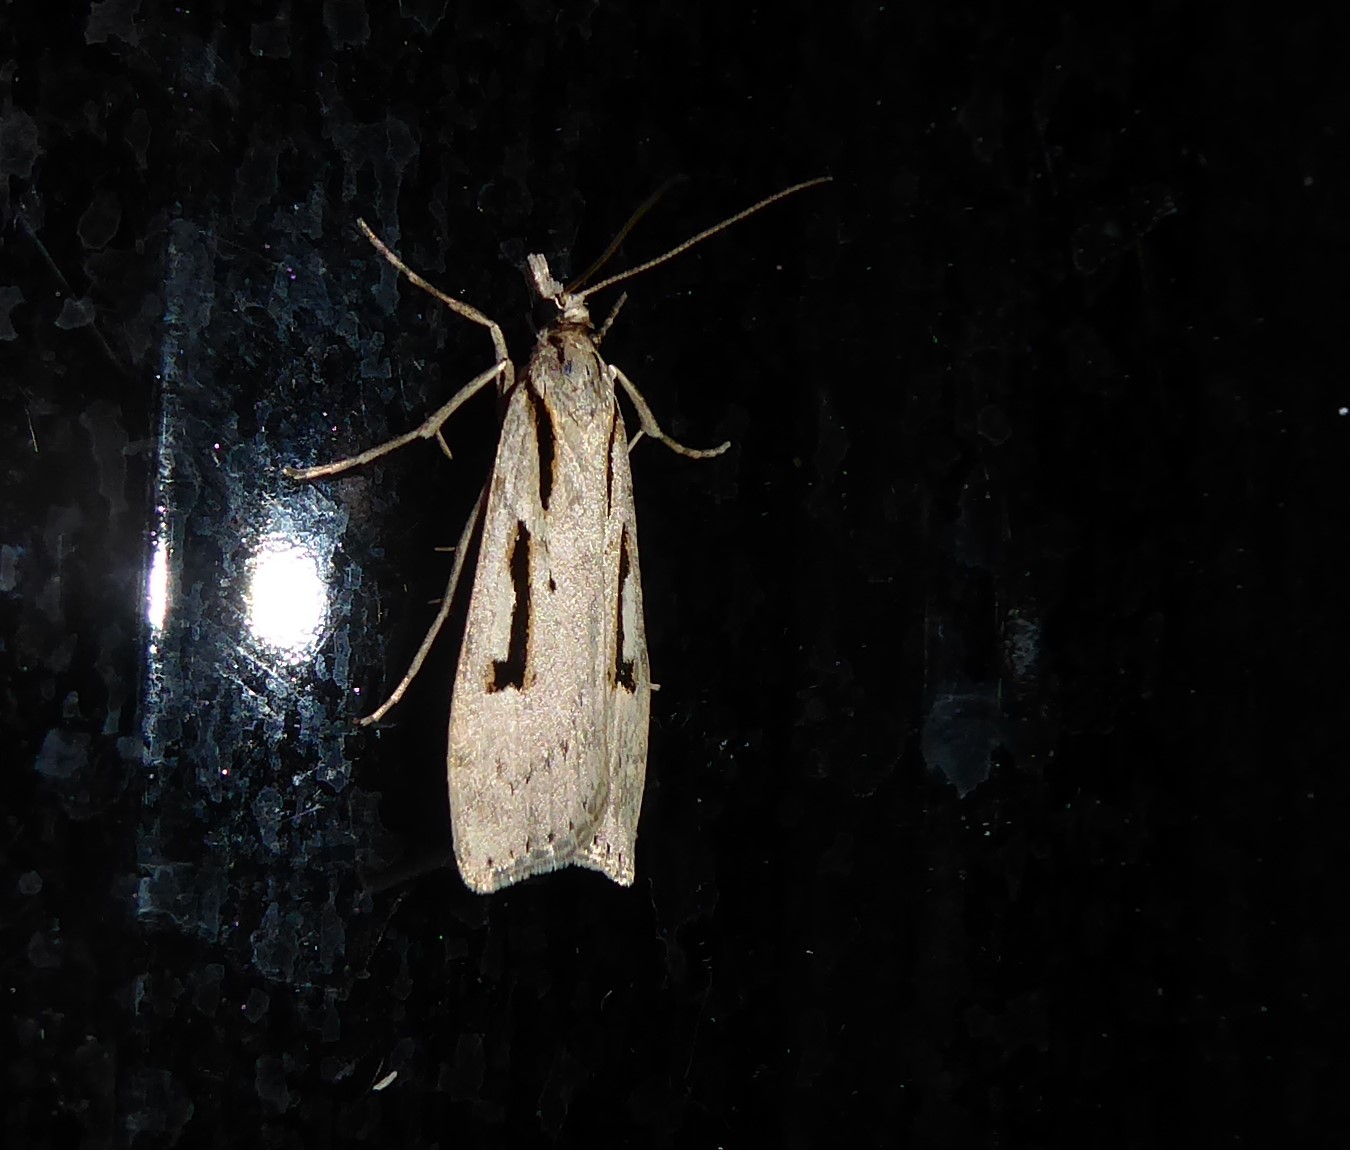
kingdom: Animalia
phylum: Arthropoda
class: Insecta
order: Lepidoptera
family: Crambidae
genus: Scoparia
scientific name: Scoparia rotuellus
